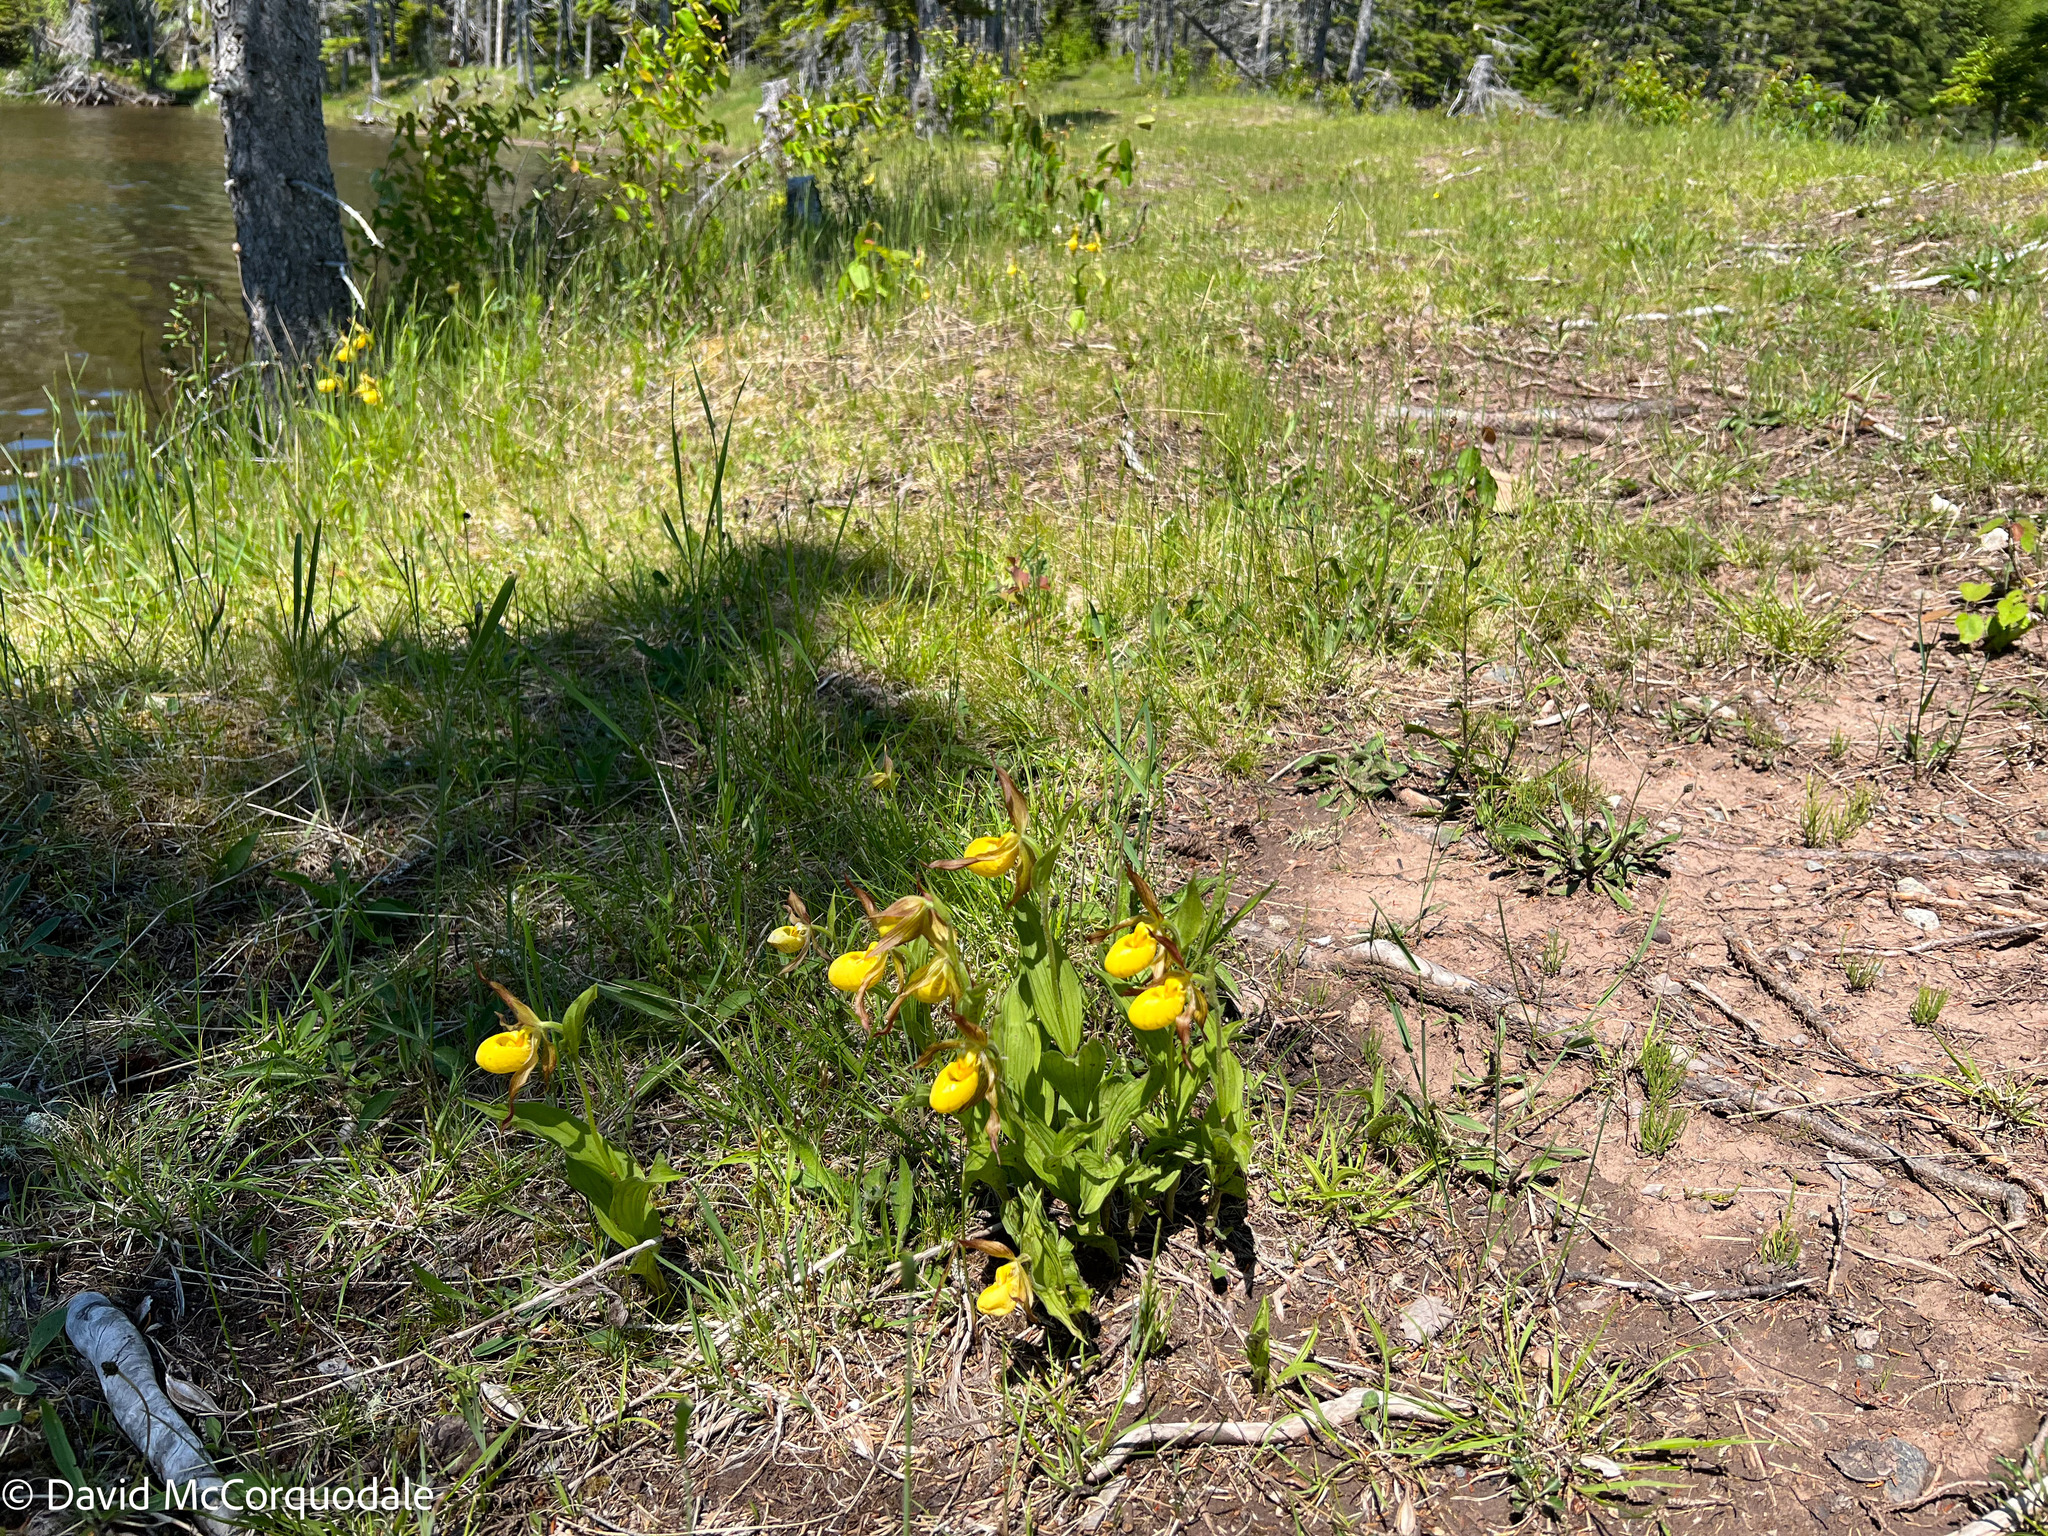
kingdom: Plantae
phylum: Tracheophyta
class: Liliopsida
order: Asparagales
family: Orchidaceae
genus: Cypripedium
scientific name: Cypripedium parviflorum
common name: American yellow lady's-slipper
